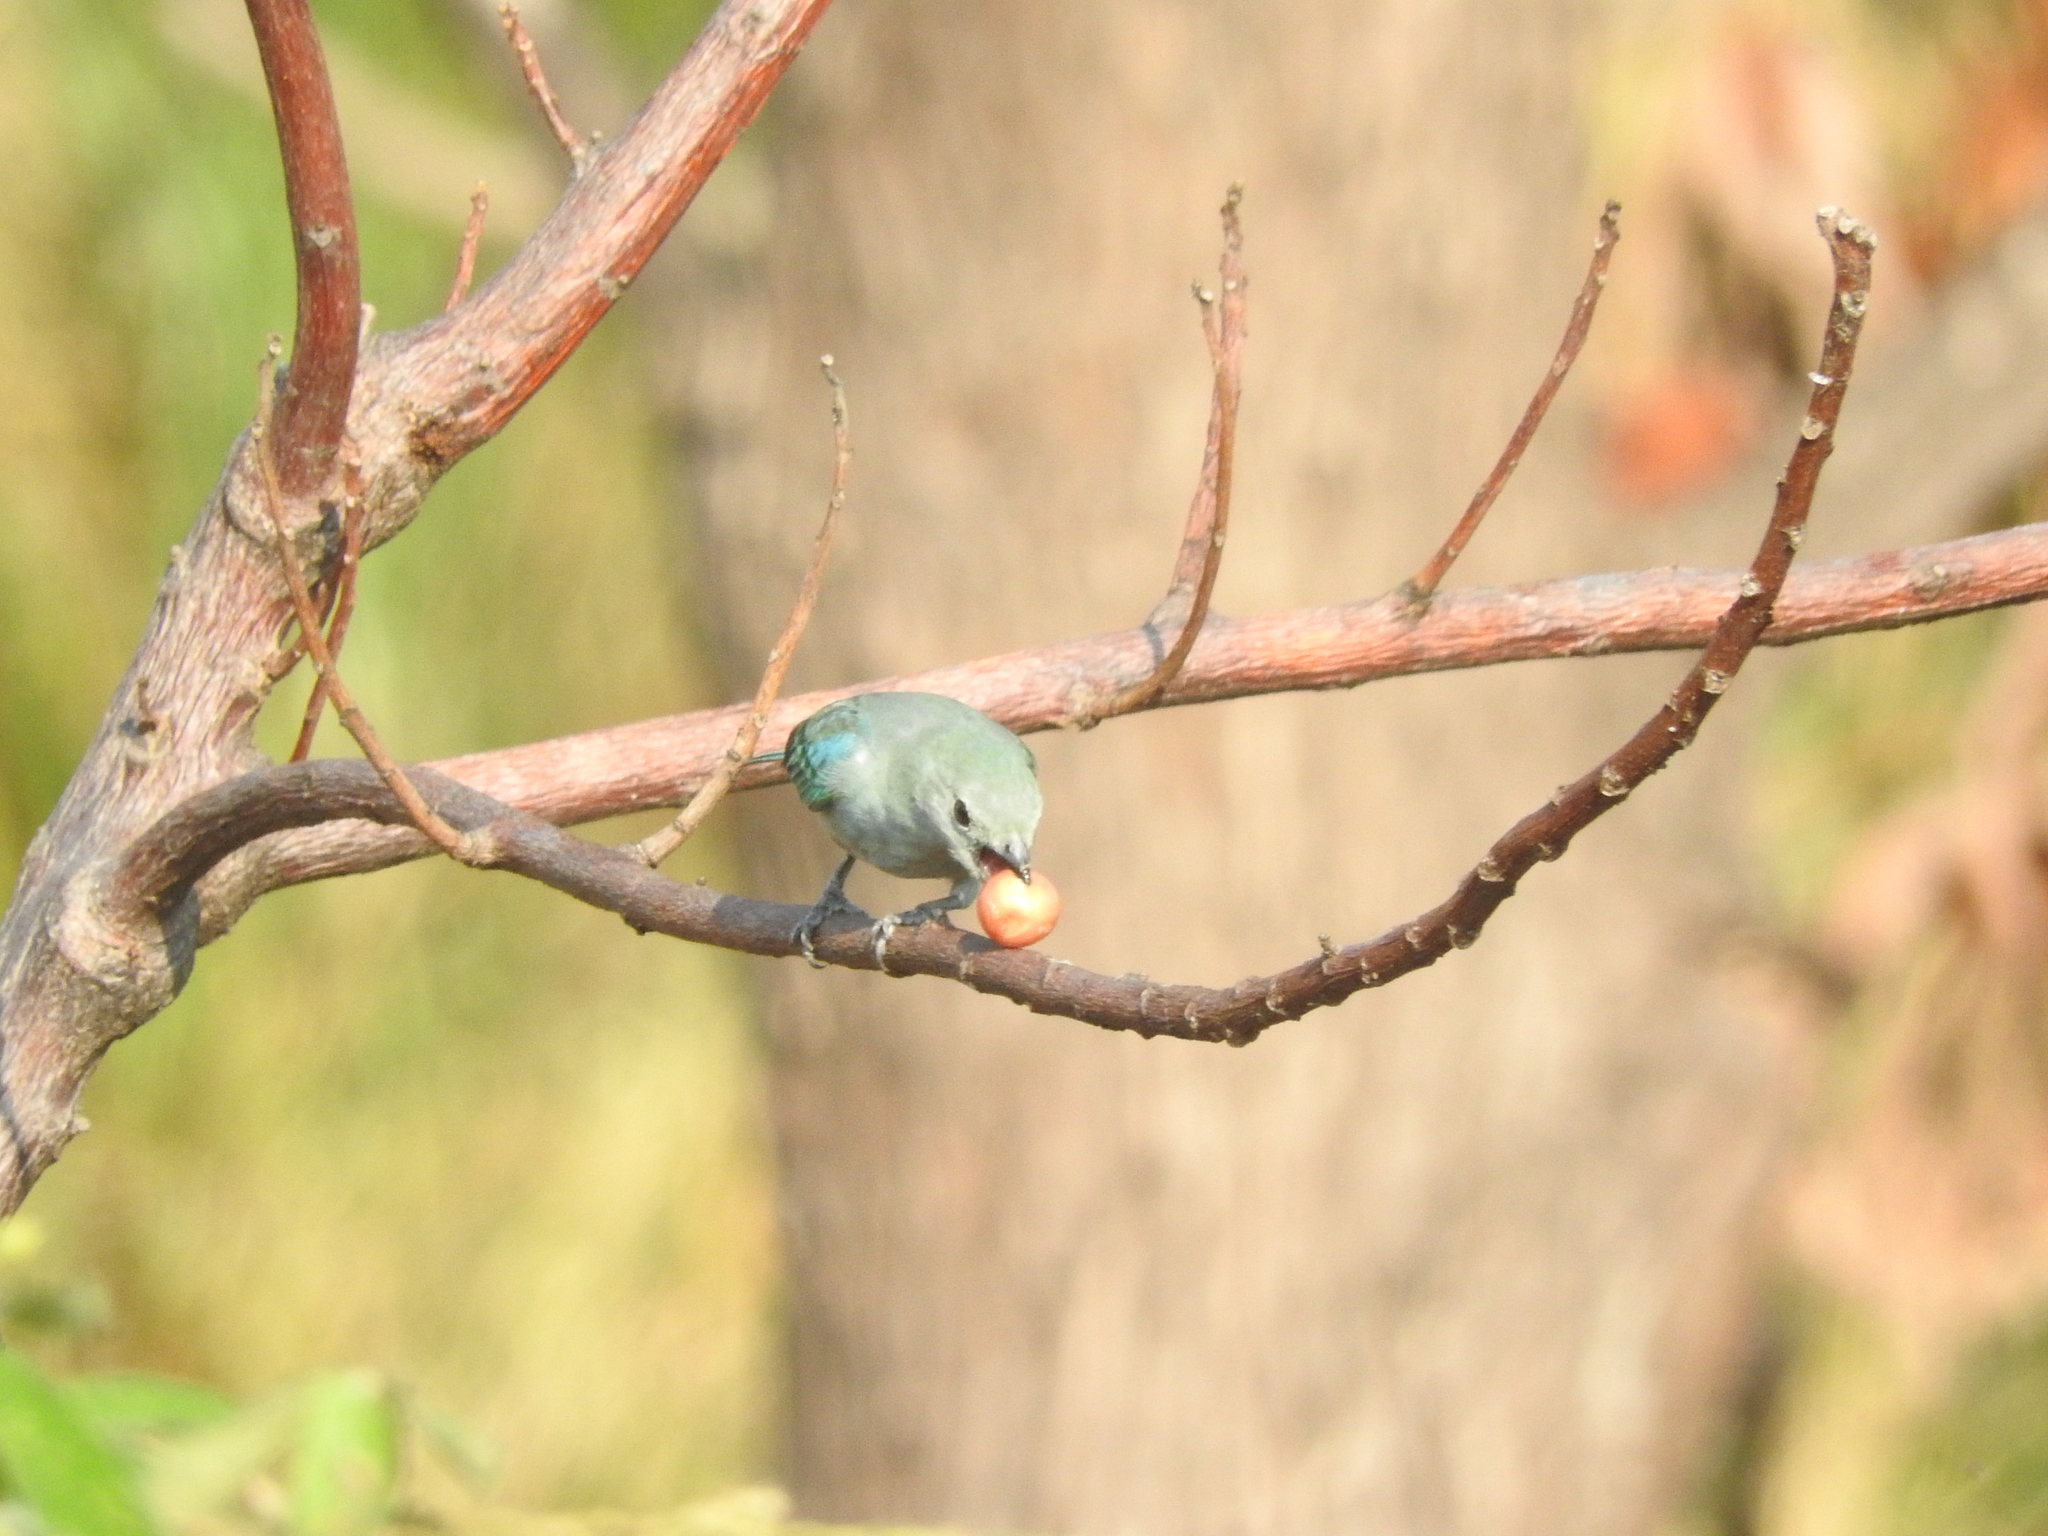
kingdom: Animalia
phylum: Chordata
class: Aves
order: Passeriformes
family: Thraupidae
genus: Thraupis
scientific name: Thraupis episcopus
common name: Blue-grey tanager
